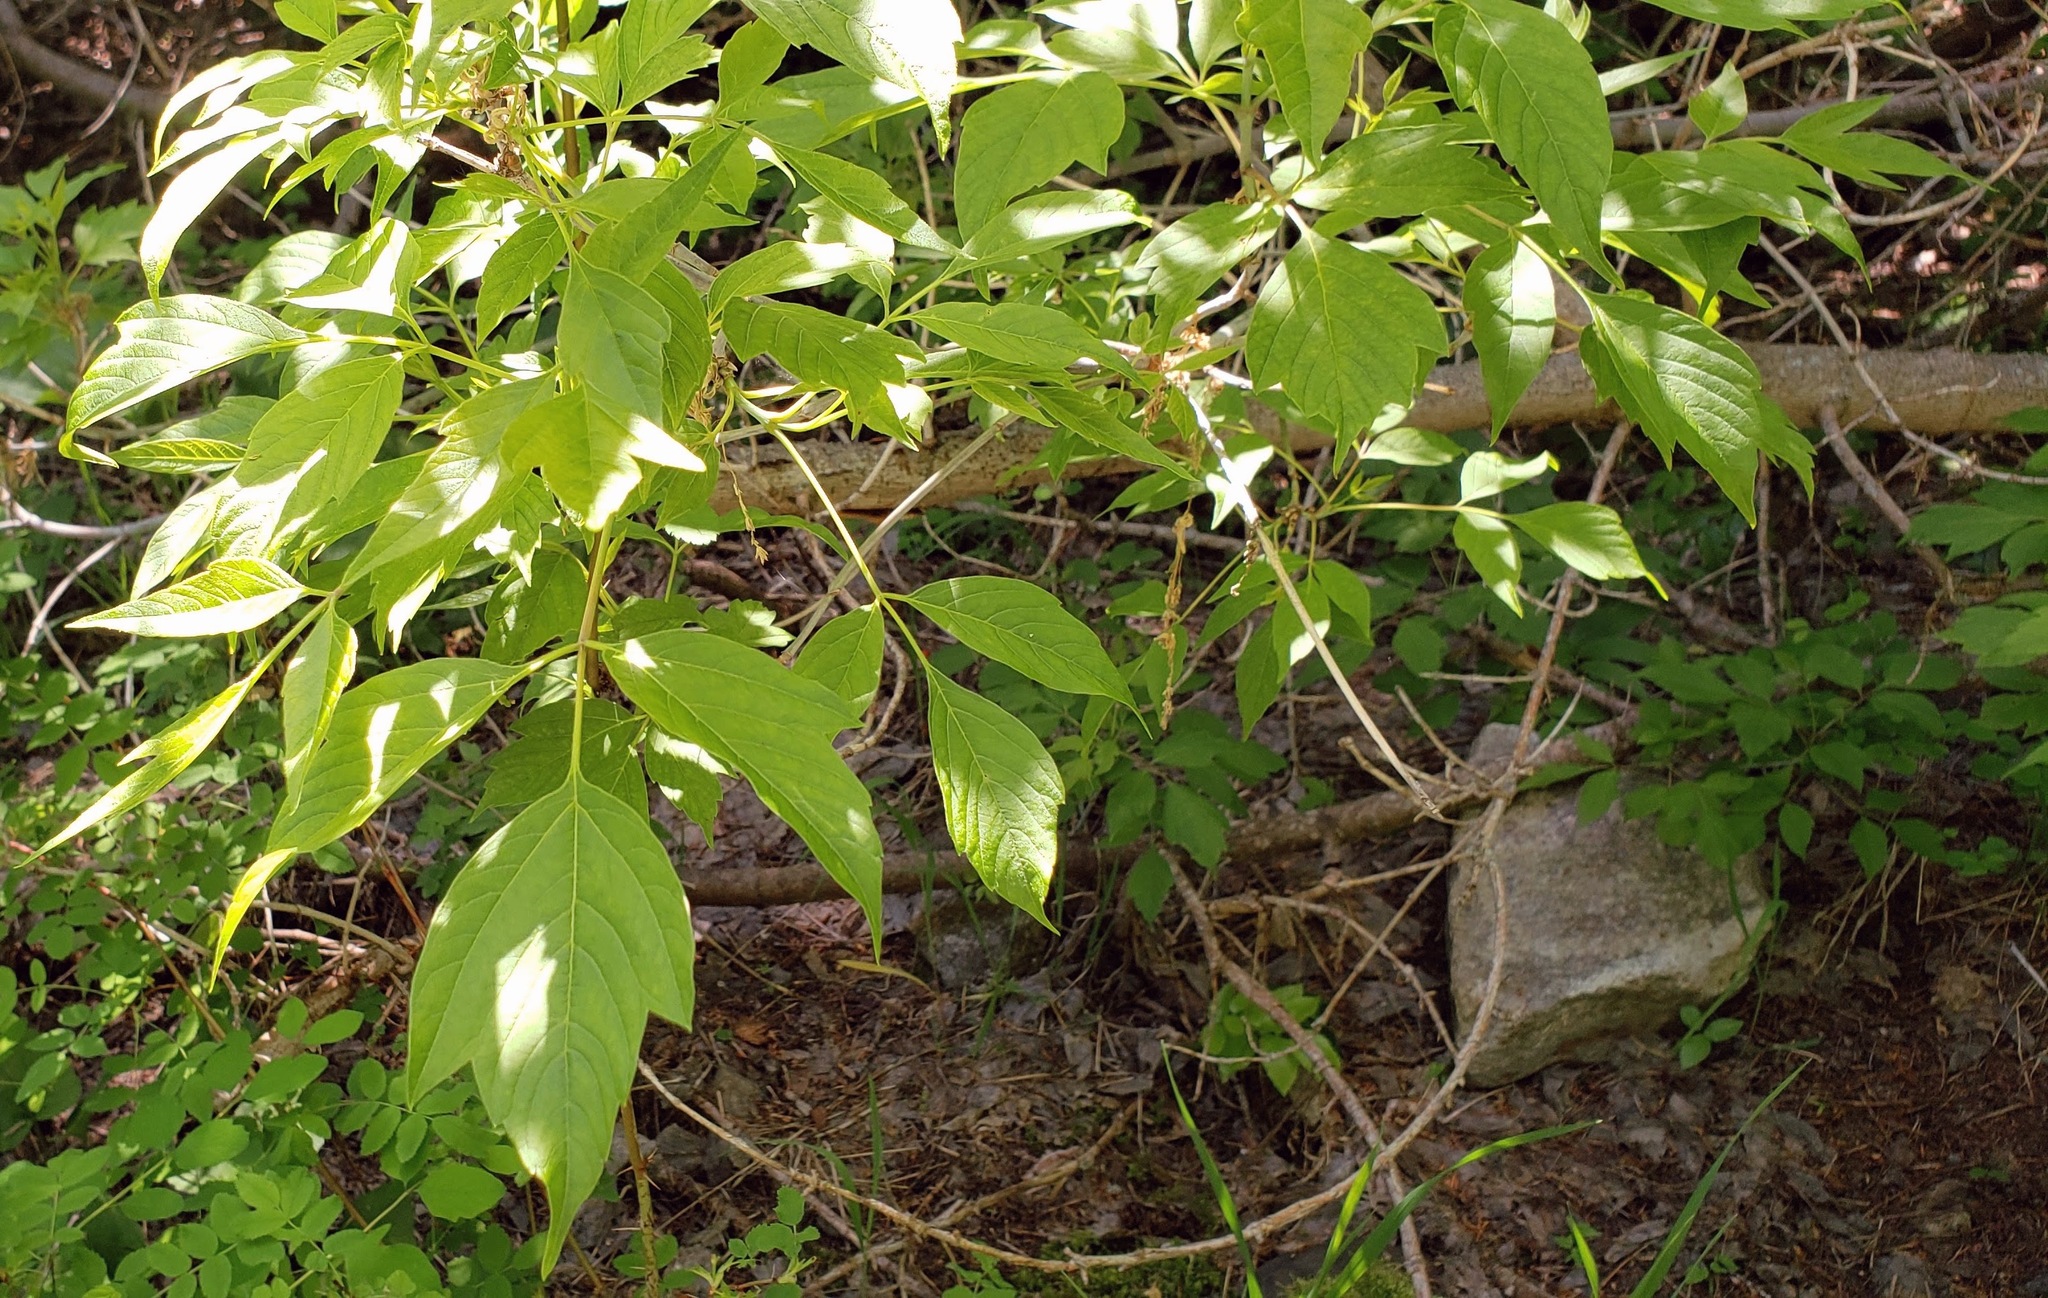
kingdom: Plantae
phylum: Tracheophyta
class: Magnoliopsida
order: Sapindales
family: Sapindaceae
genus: Acer
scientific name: Acer negundo
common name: Ashleaf maple
